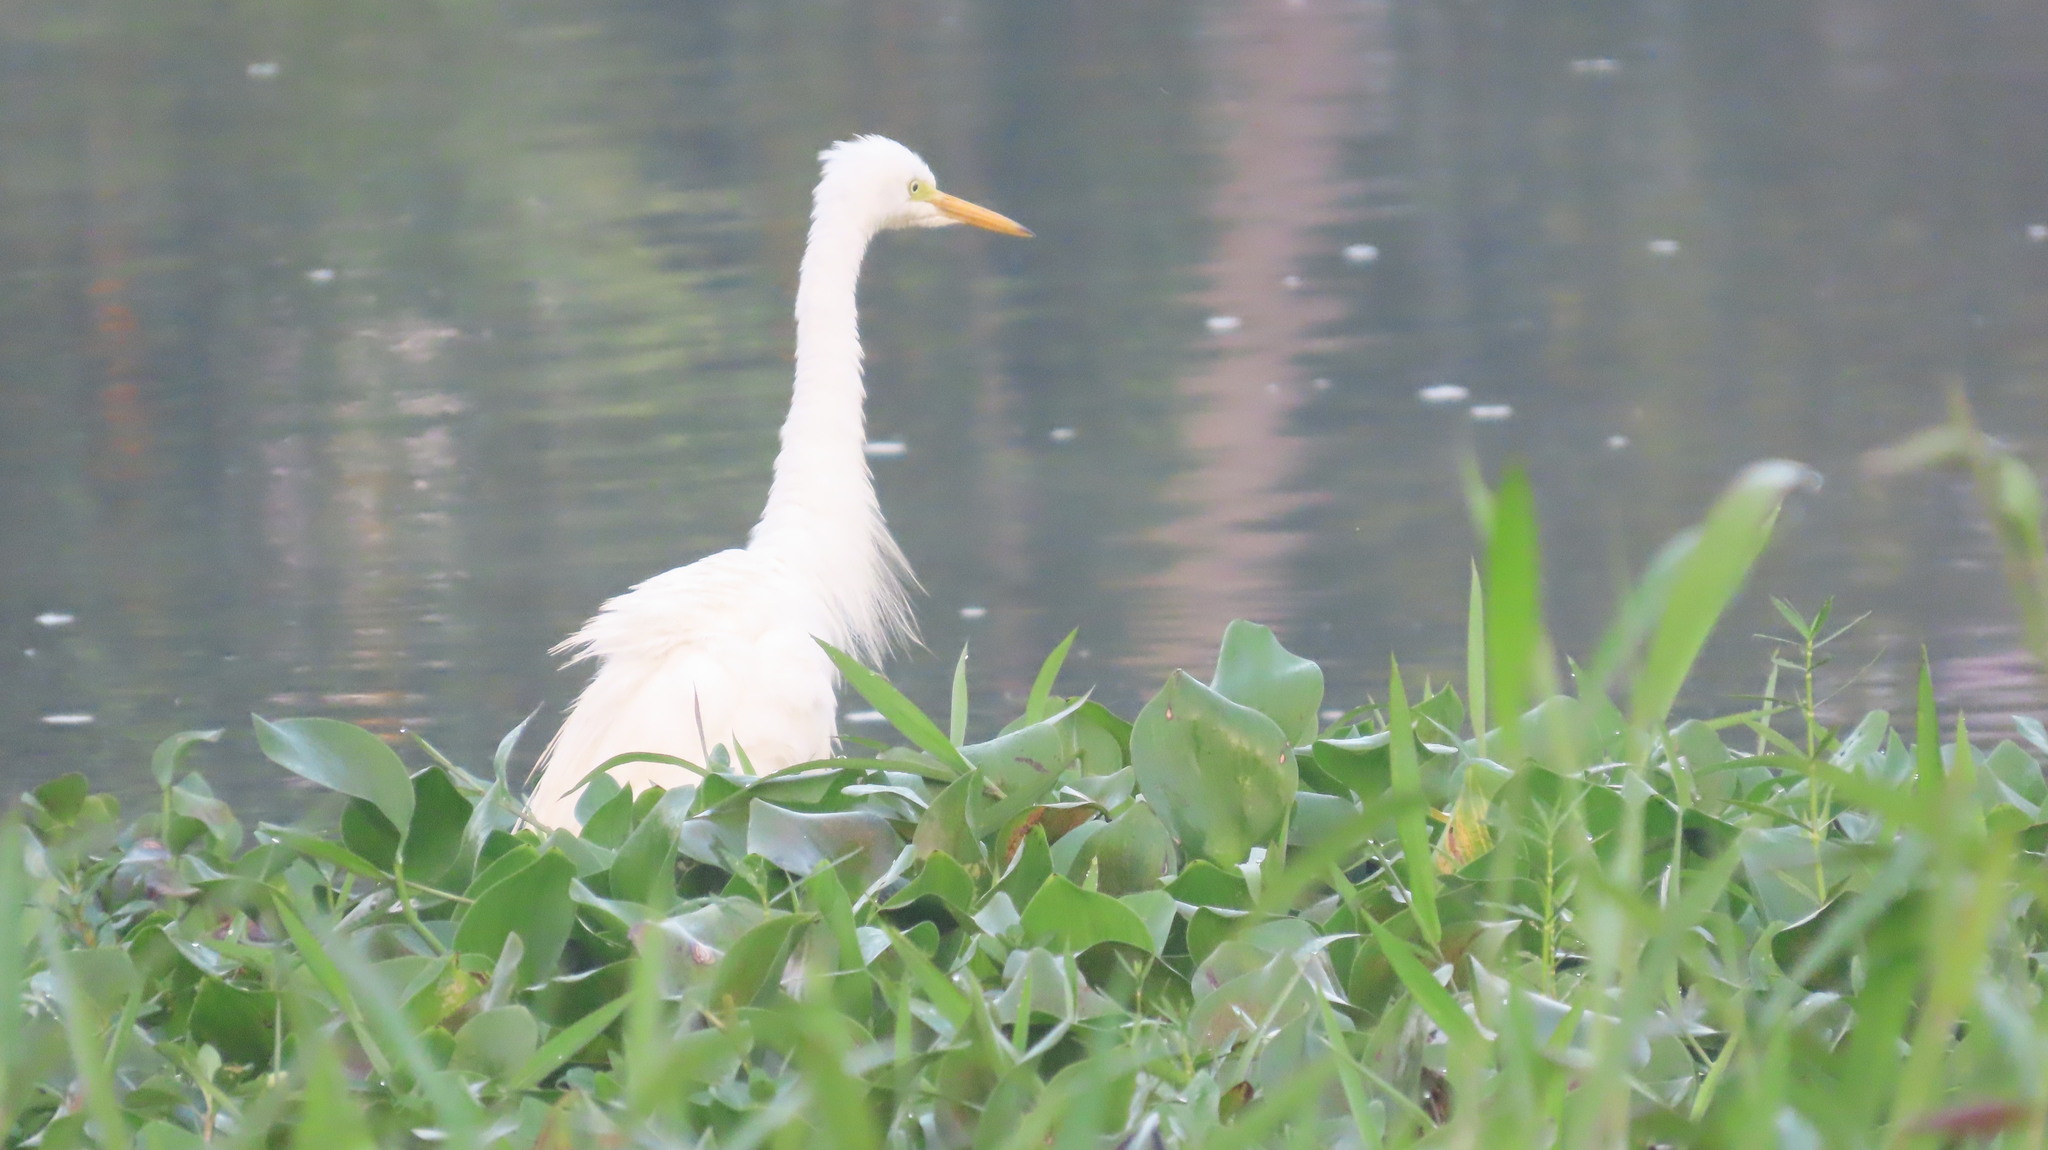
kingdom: Animalia
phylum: Chordata
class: Aves
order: Pelecaniformes
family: Ardeidae
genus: Egretta
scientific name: Egretta intermedia
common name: Intermediate egret
